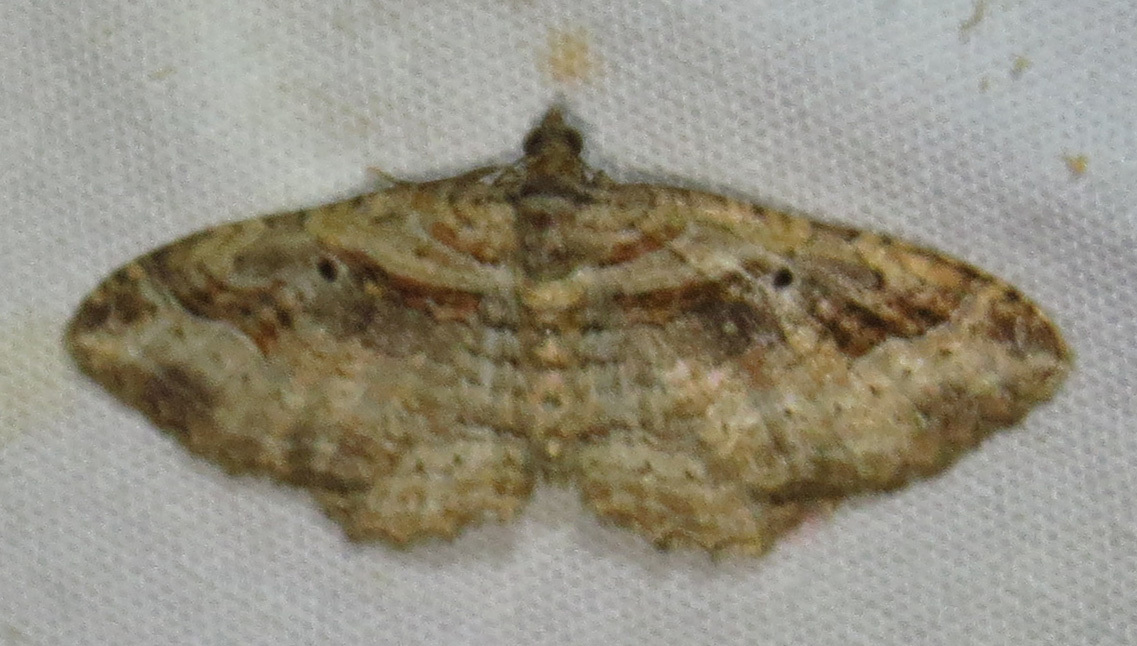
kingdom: Animalia
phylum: Arthropoda
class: Insecta
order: Lepidoptera
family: Geometridae
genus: Costaconvexa
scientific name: Costaconvexa centrostrigaria
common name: Bent-line carpet
